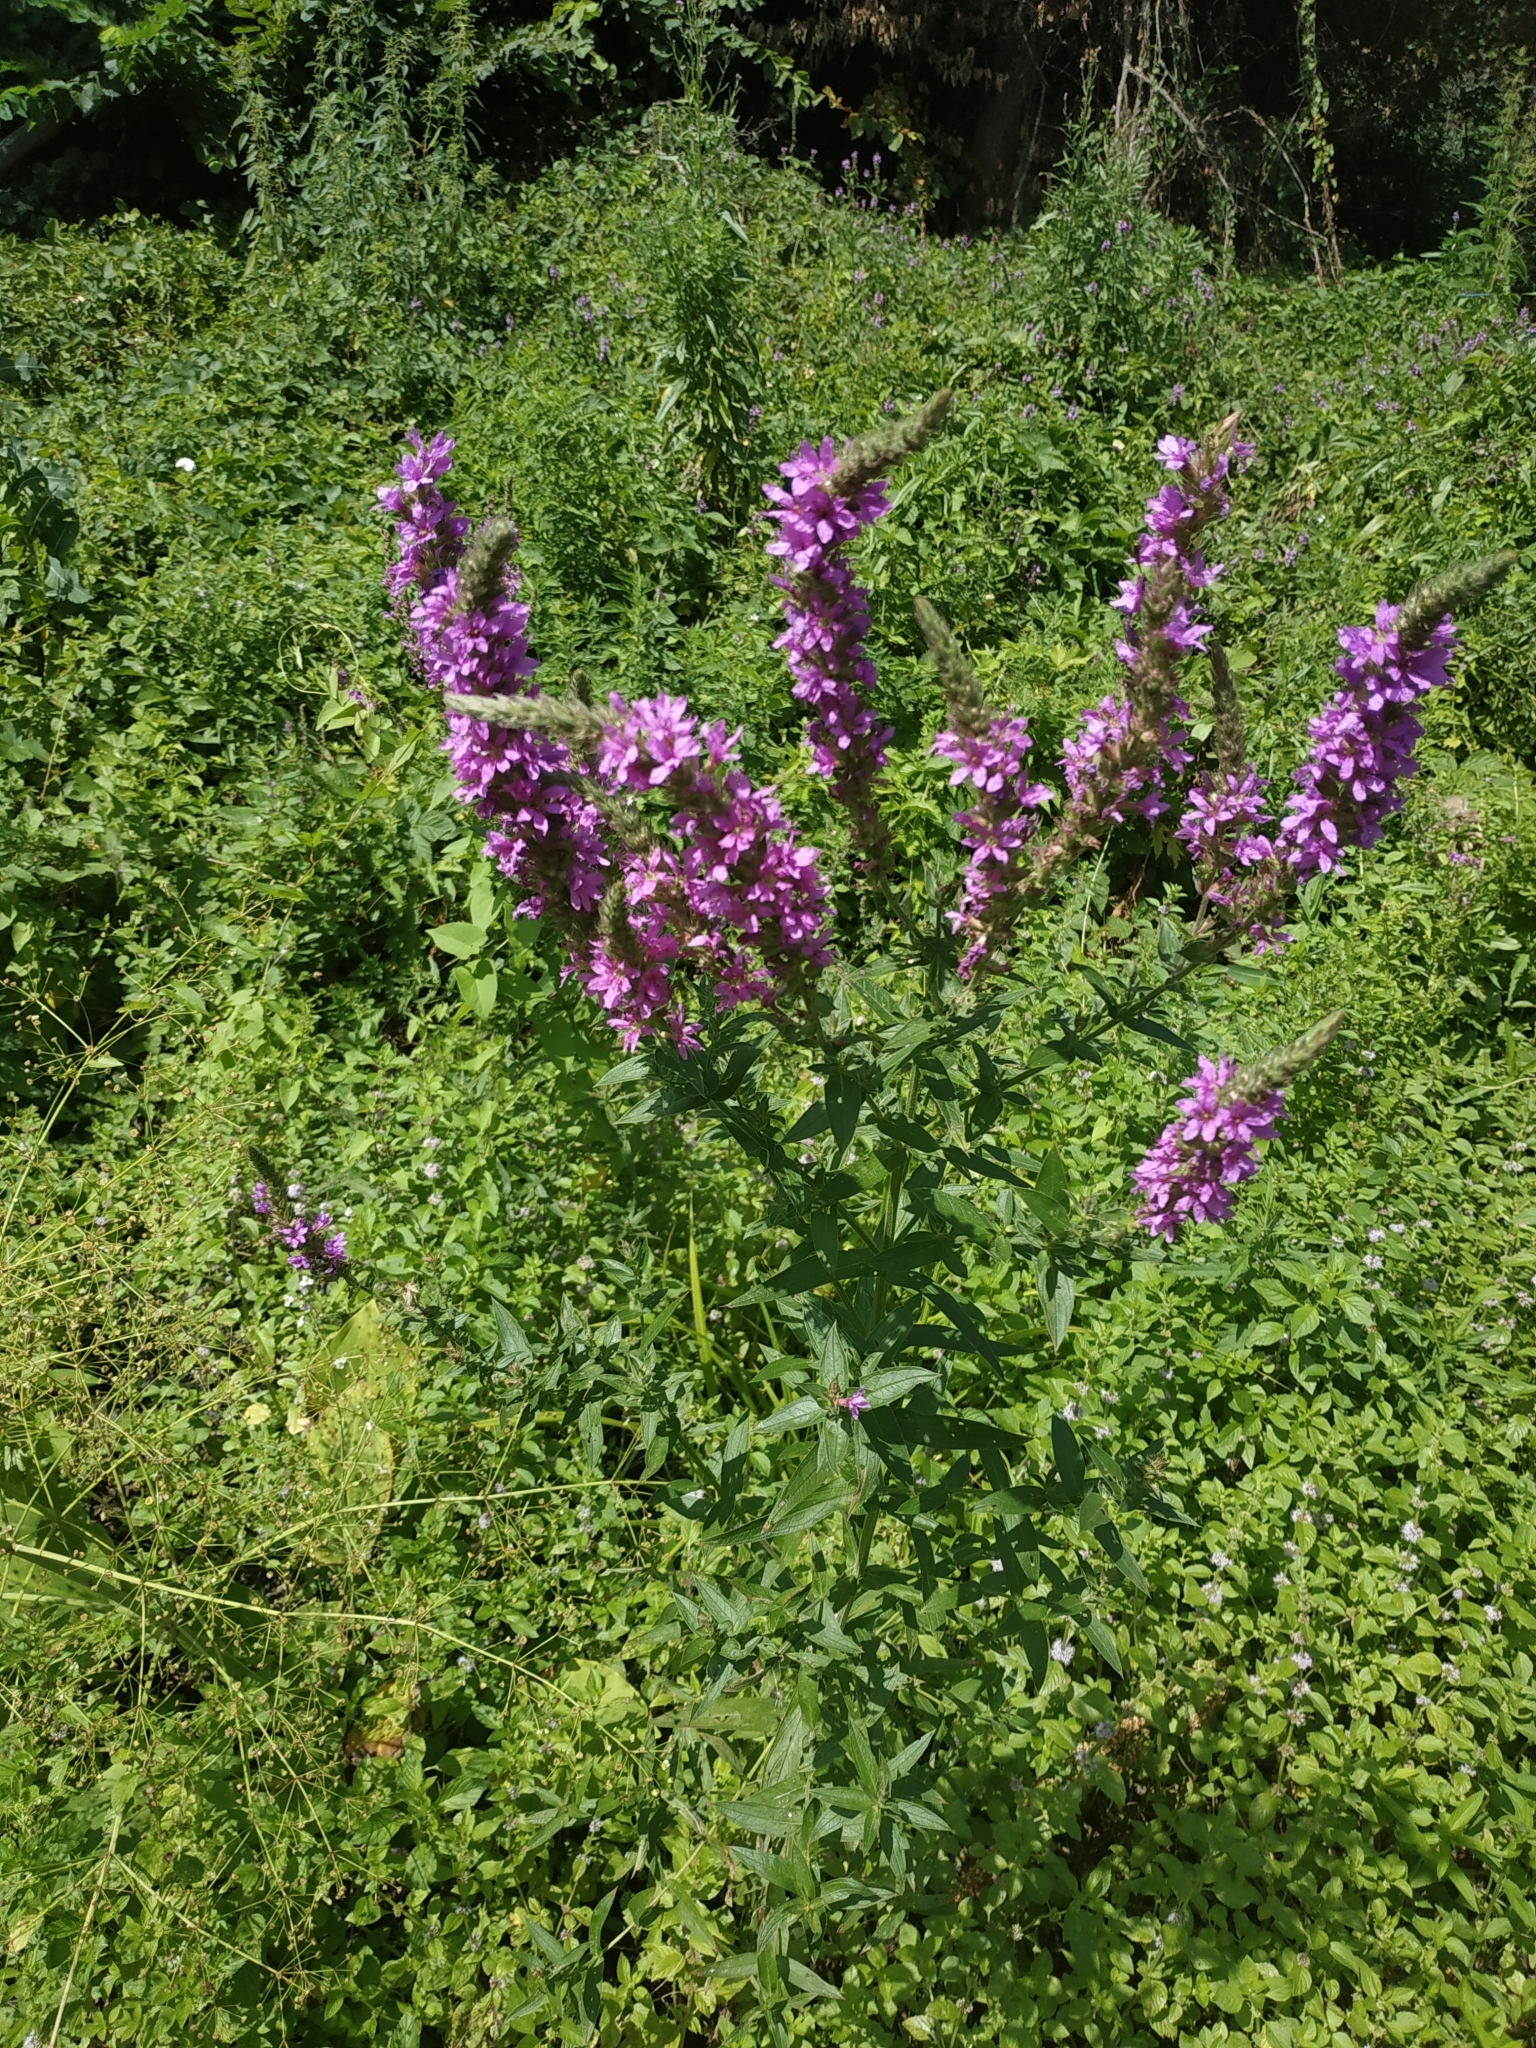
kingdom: Plantae
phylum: Tracheophyta
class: Magnoliopsida
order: Myrtales
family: Lythraceae
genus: Lythrum
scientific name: Lythrum salicaria
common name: Purple loosestrife
